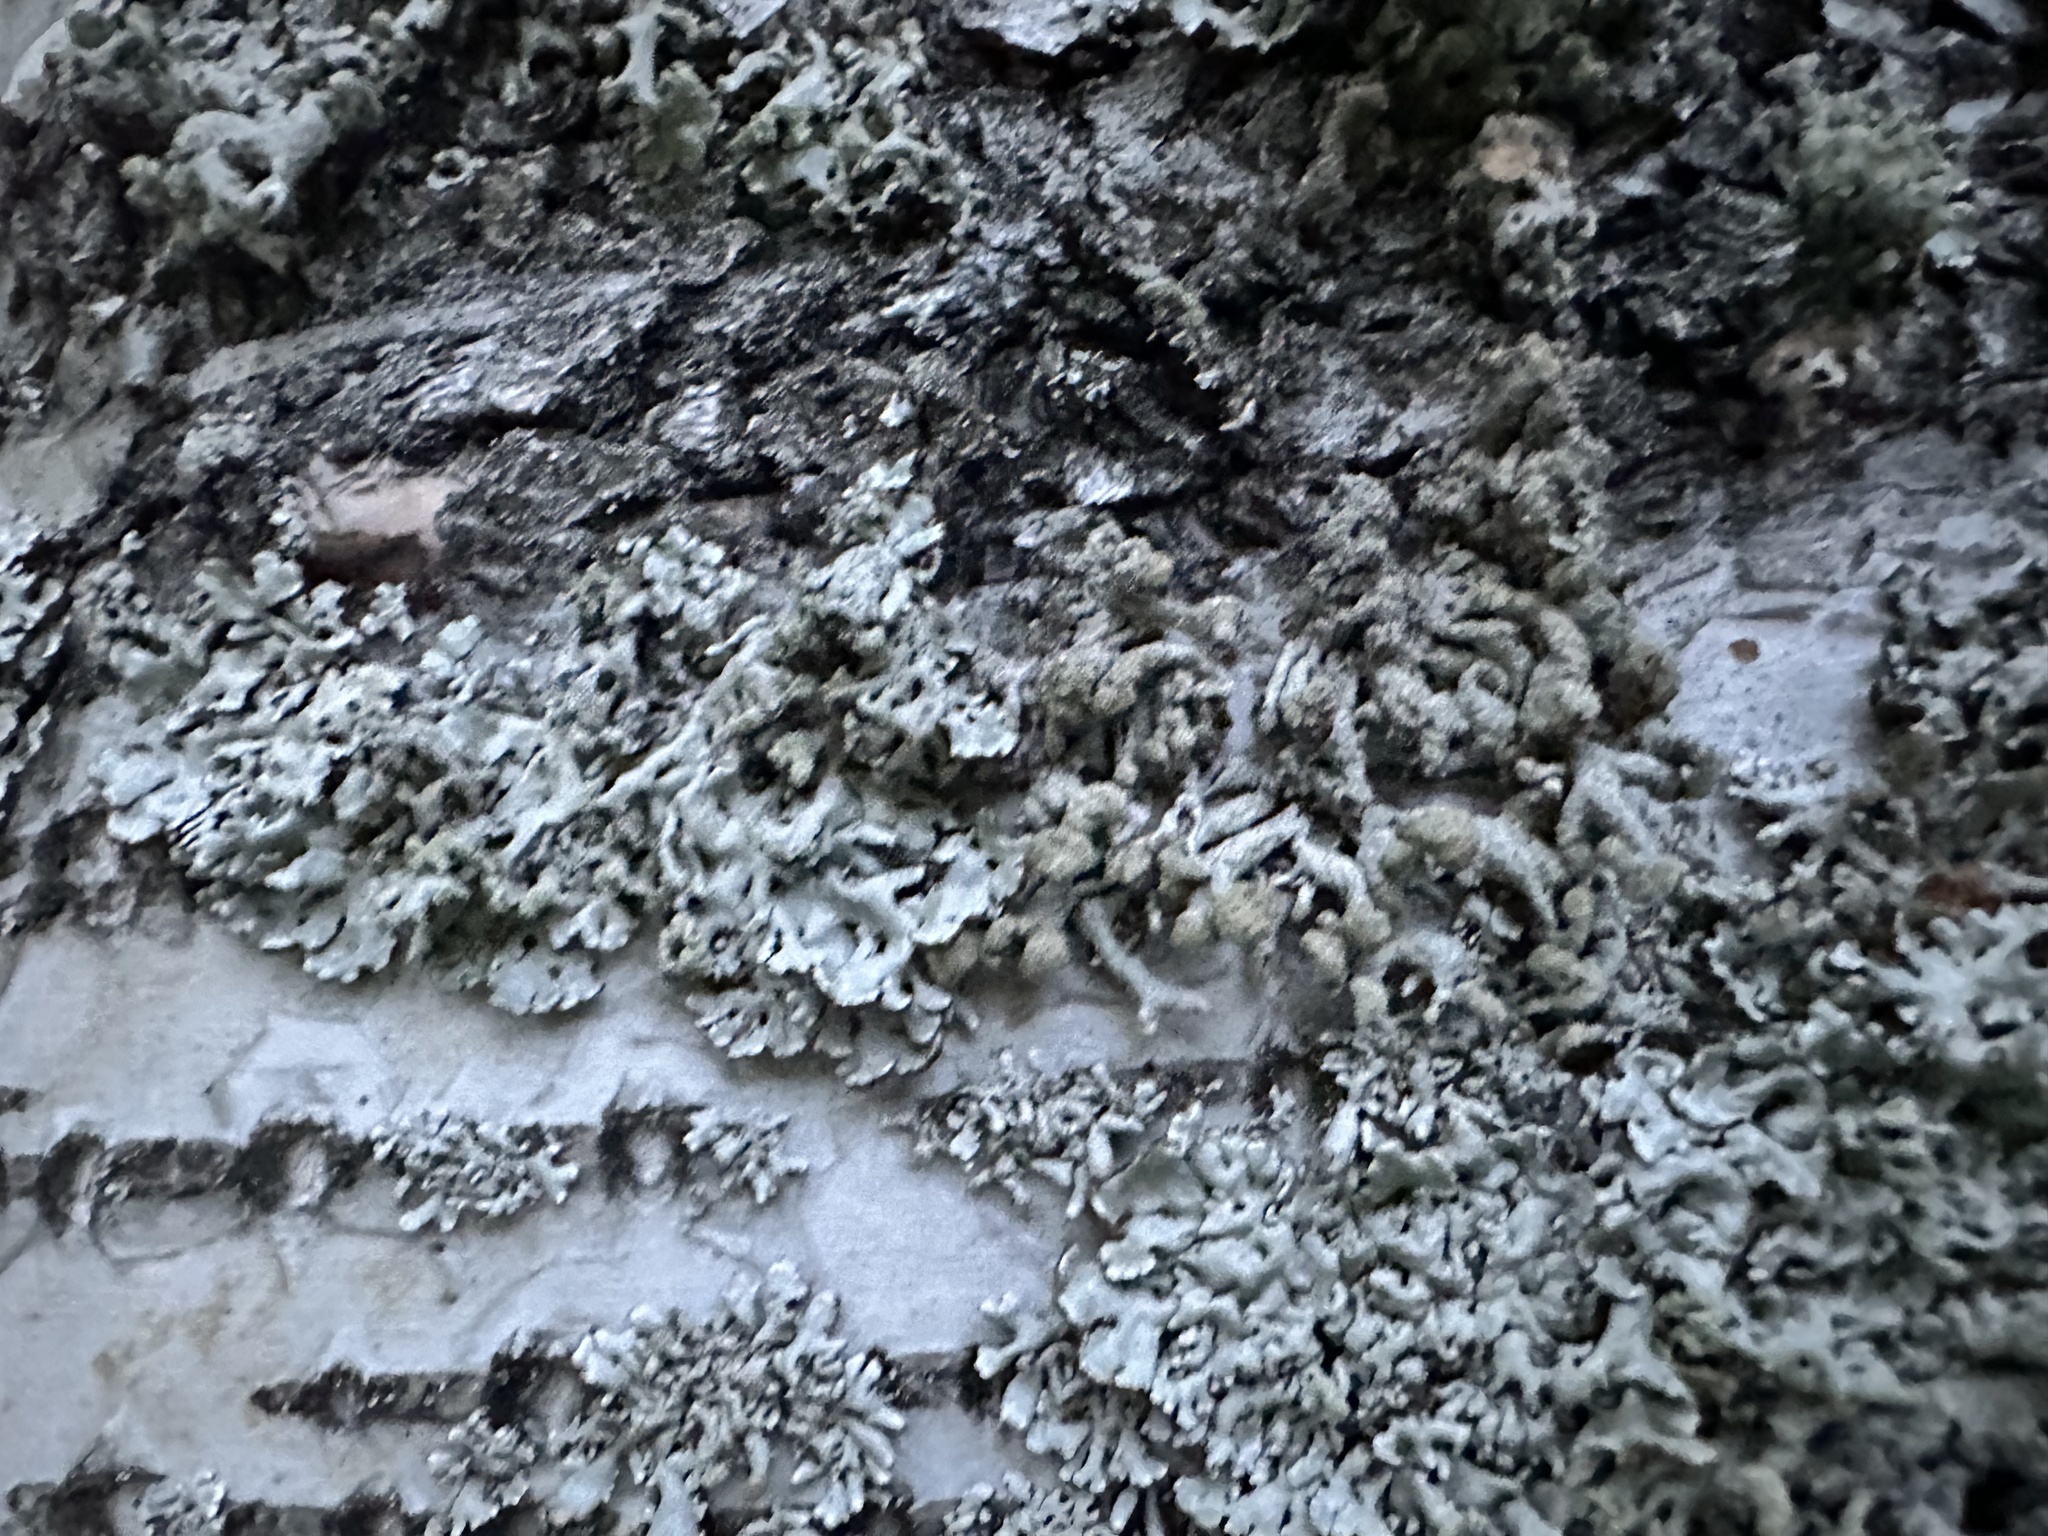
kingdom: Fungi
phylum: Ascomycota
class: Lecanoromycetes
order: Lecanorales
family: Parmeliaceae
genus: Hypogymnia
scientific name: Hypogymnia tubulosa
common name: Powder-headed tube lichen
